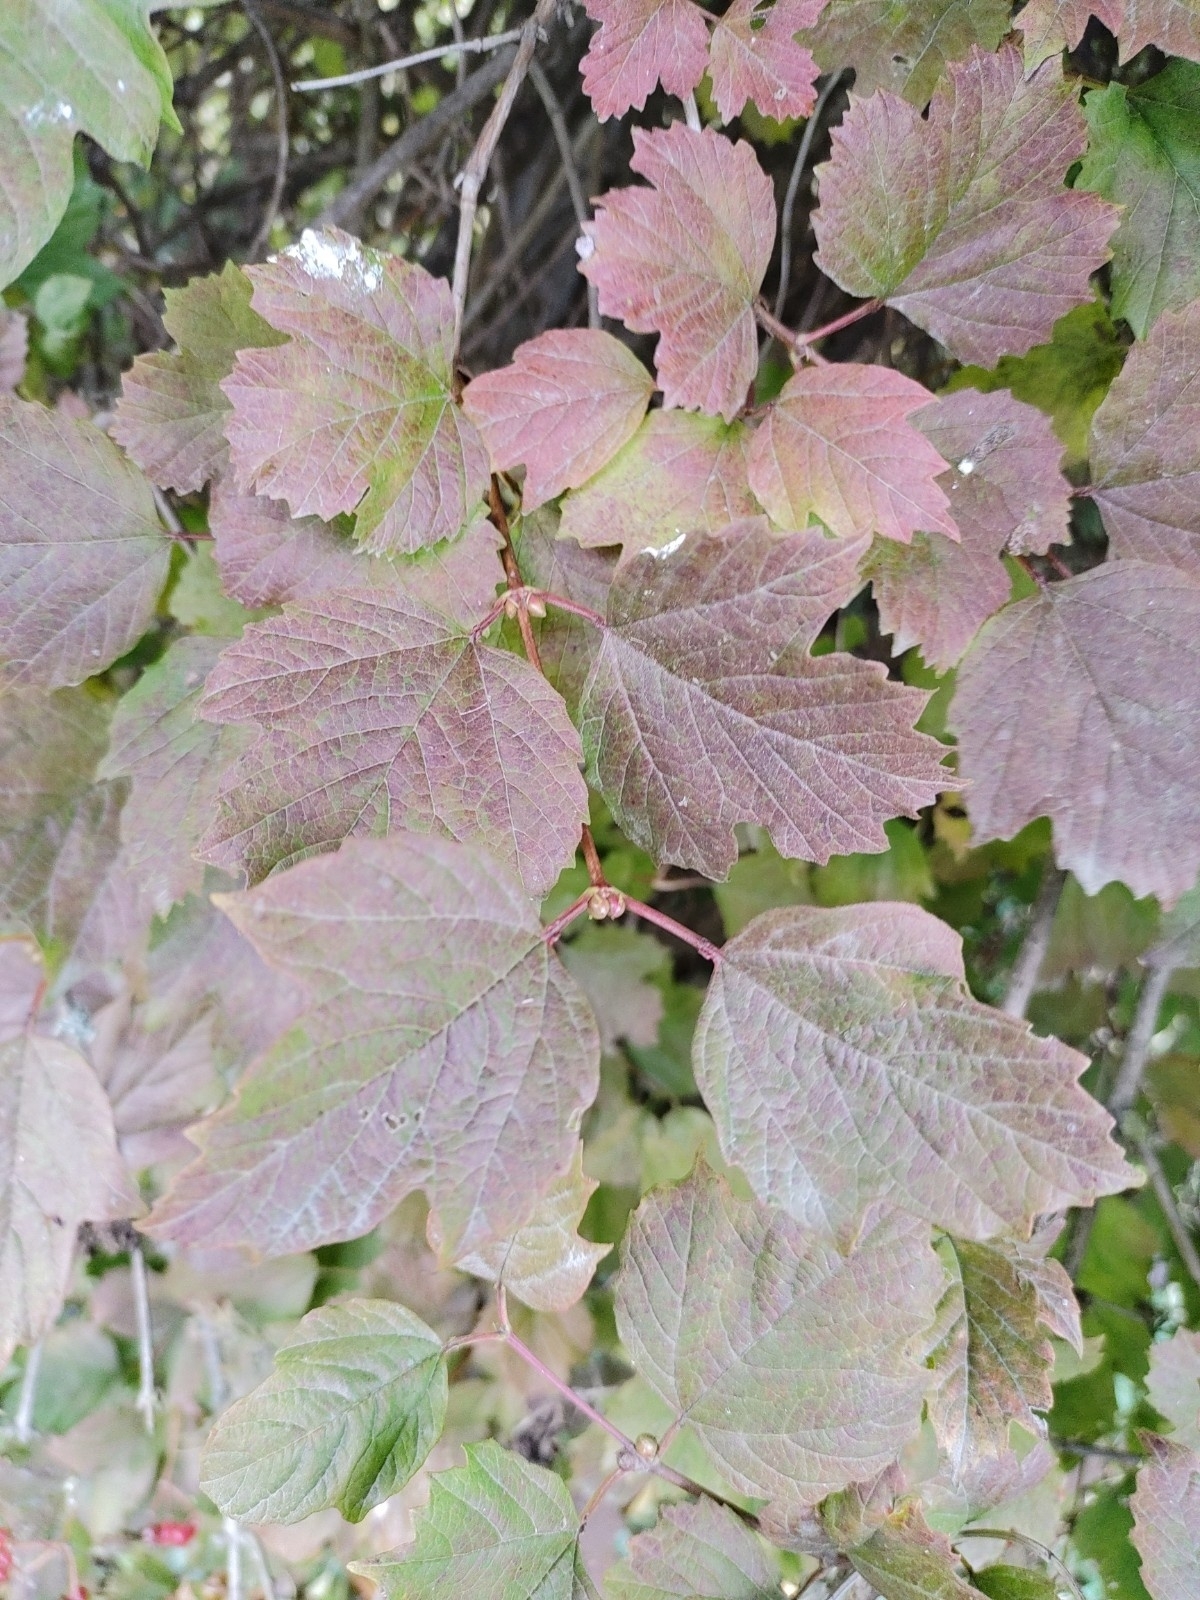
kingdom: Plantae
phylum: Tracheophyta
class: Magnoliopsida
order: Dipsacales
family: Viburnaceae
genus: Viburnum
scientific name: Viburnum opulus
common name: Guelder-rose
